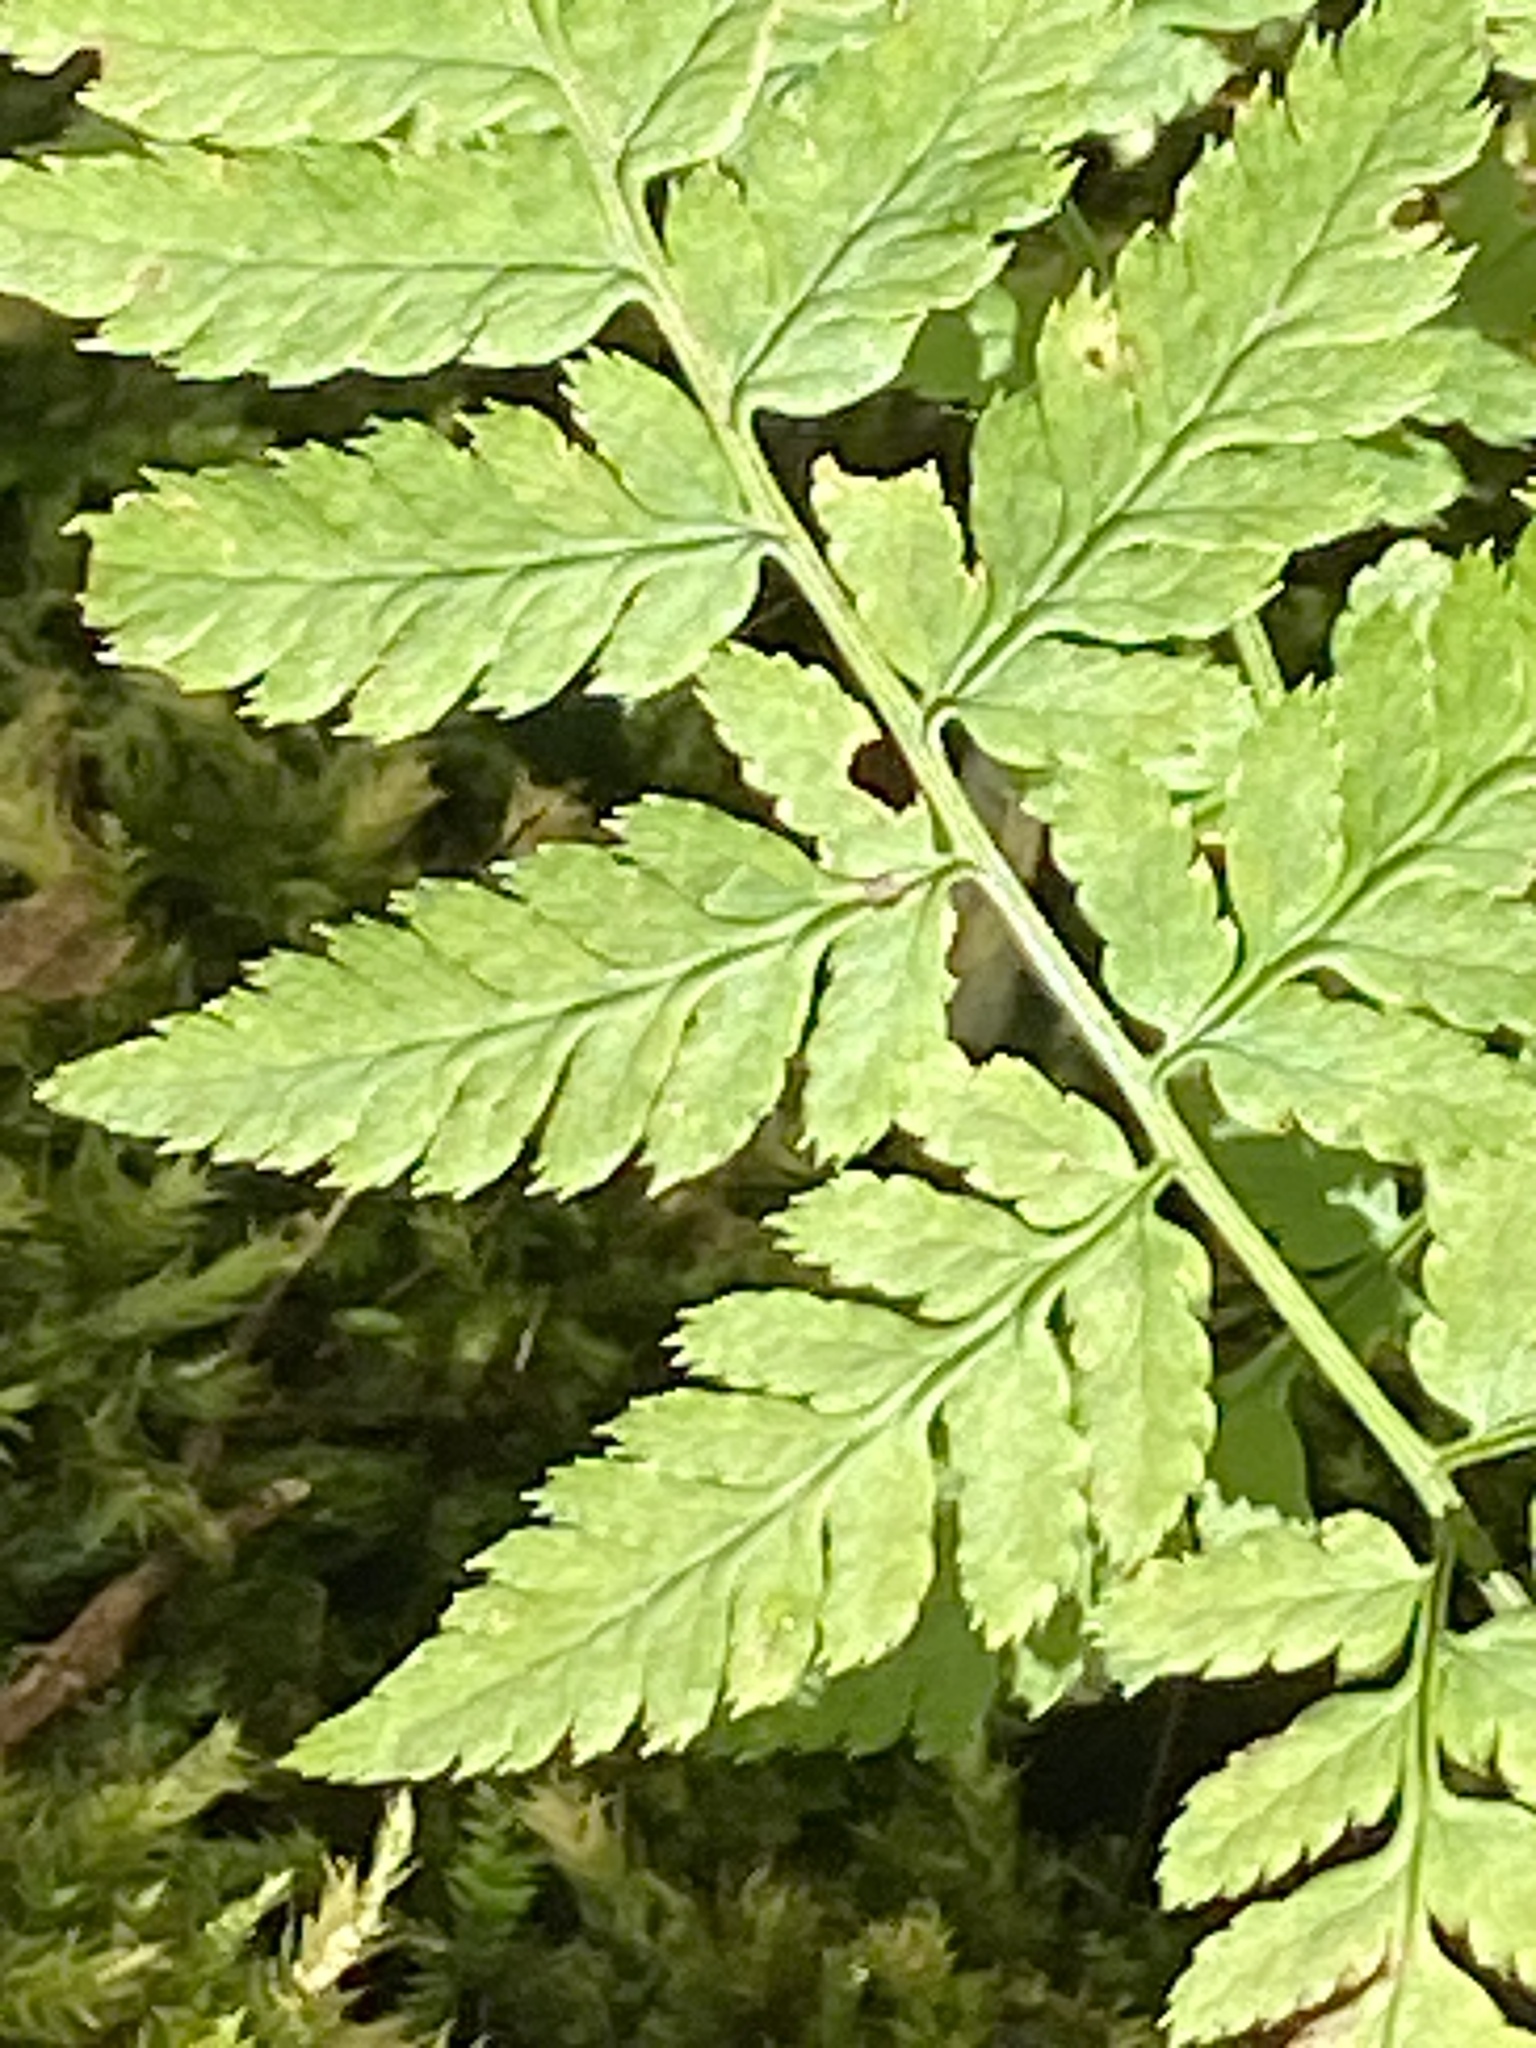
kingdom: Plantae
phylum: Tracheophyta
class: Polypodiopsida
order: Polypodiales
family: Dryopteridaceae
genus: Dryopteris
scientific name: Dryopteris carthusiana
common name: Narrow buckler-fern
